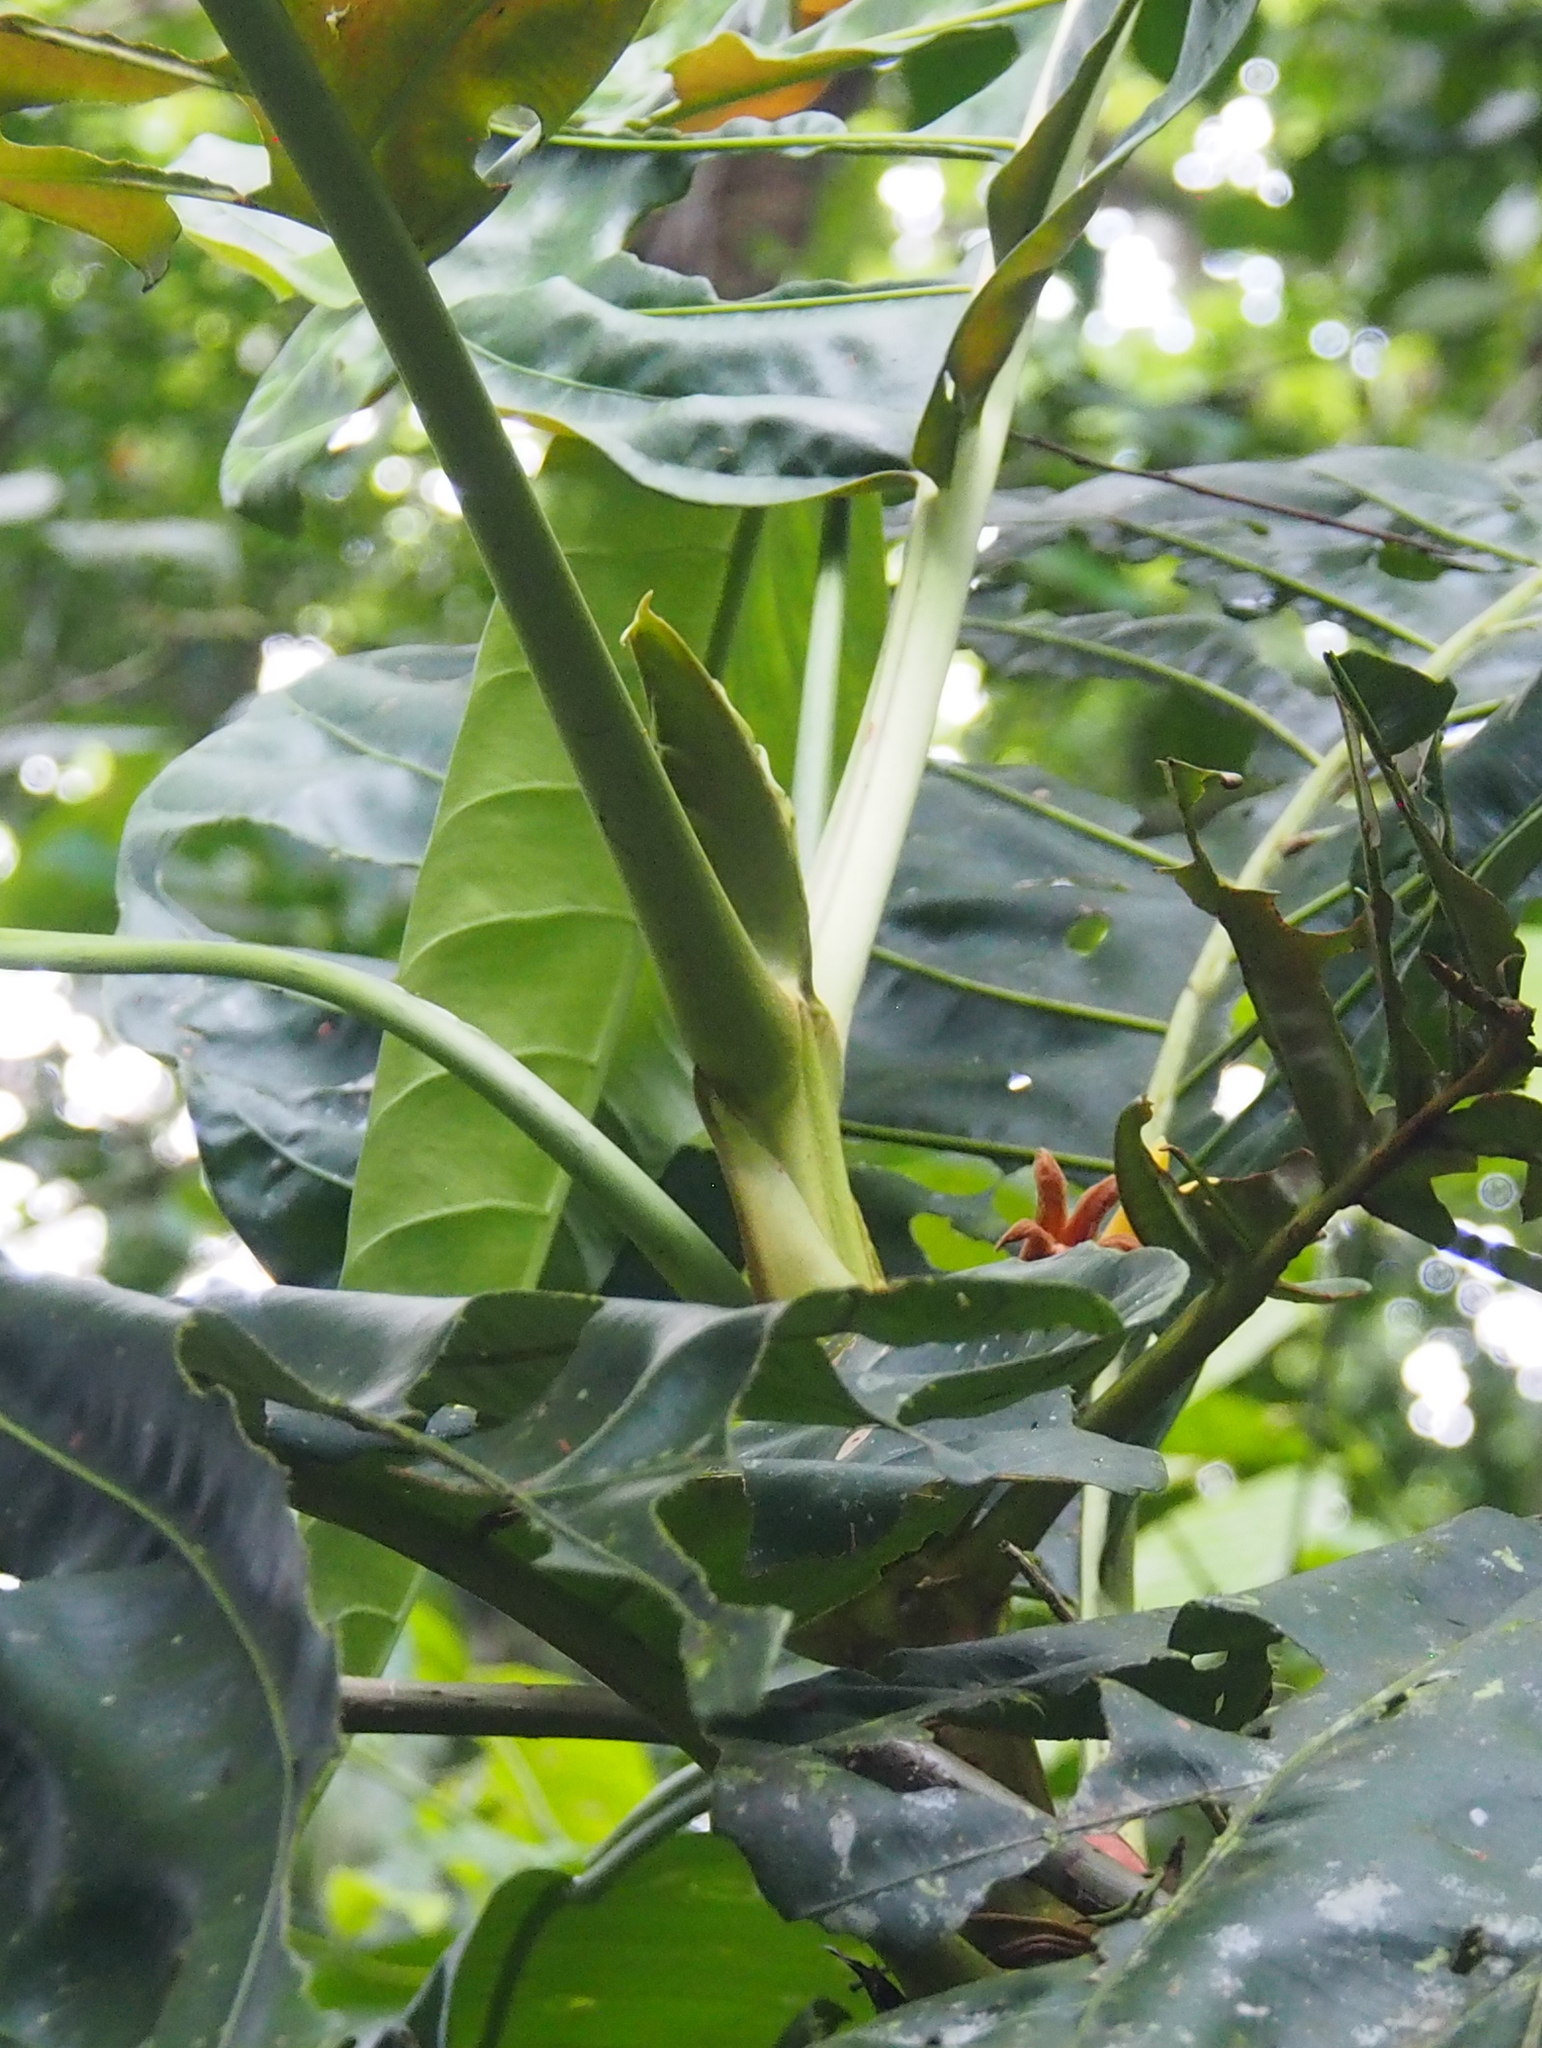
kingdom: Plantae
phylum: Tracheophyta
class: Magnoliopsida
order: Gentianales
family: Rubiaceae
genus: Pentagonia
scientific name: Pentagonia donnell-smithii
